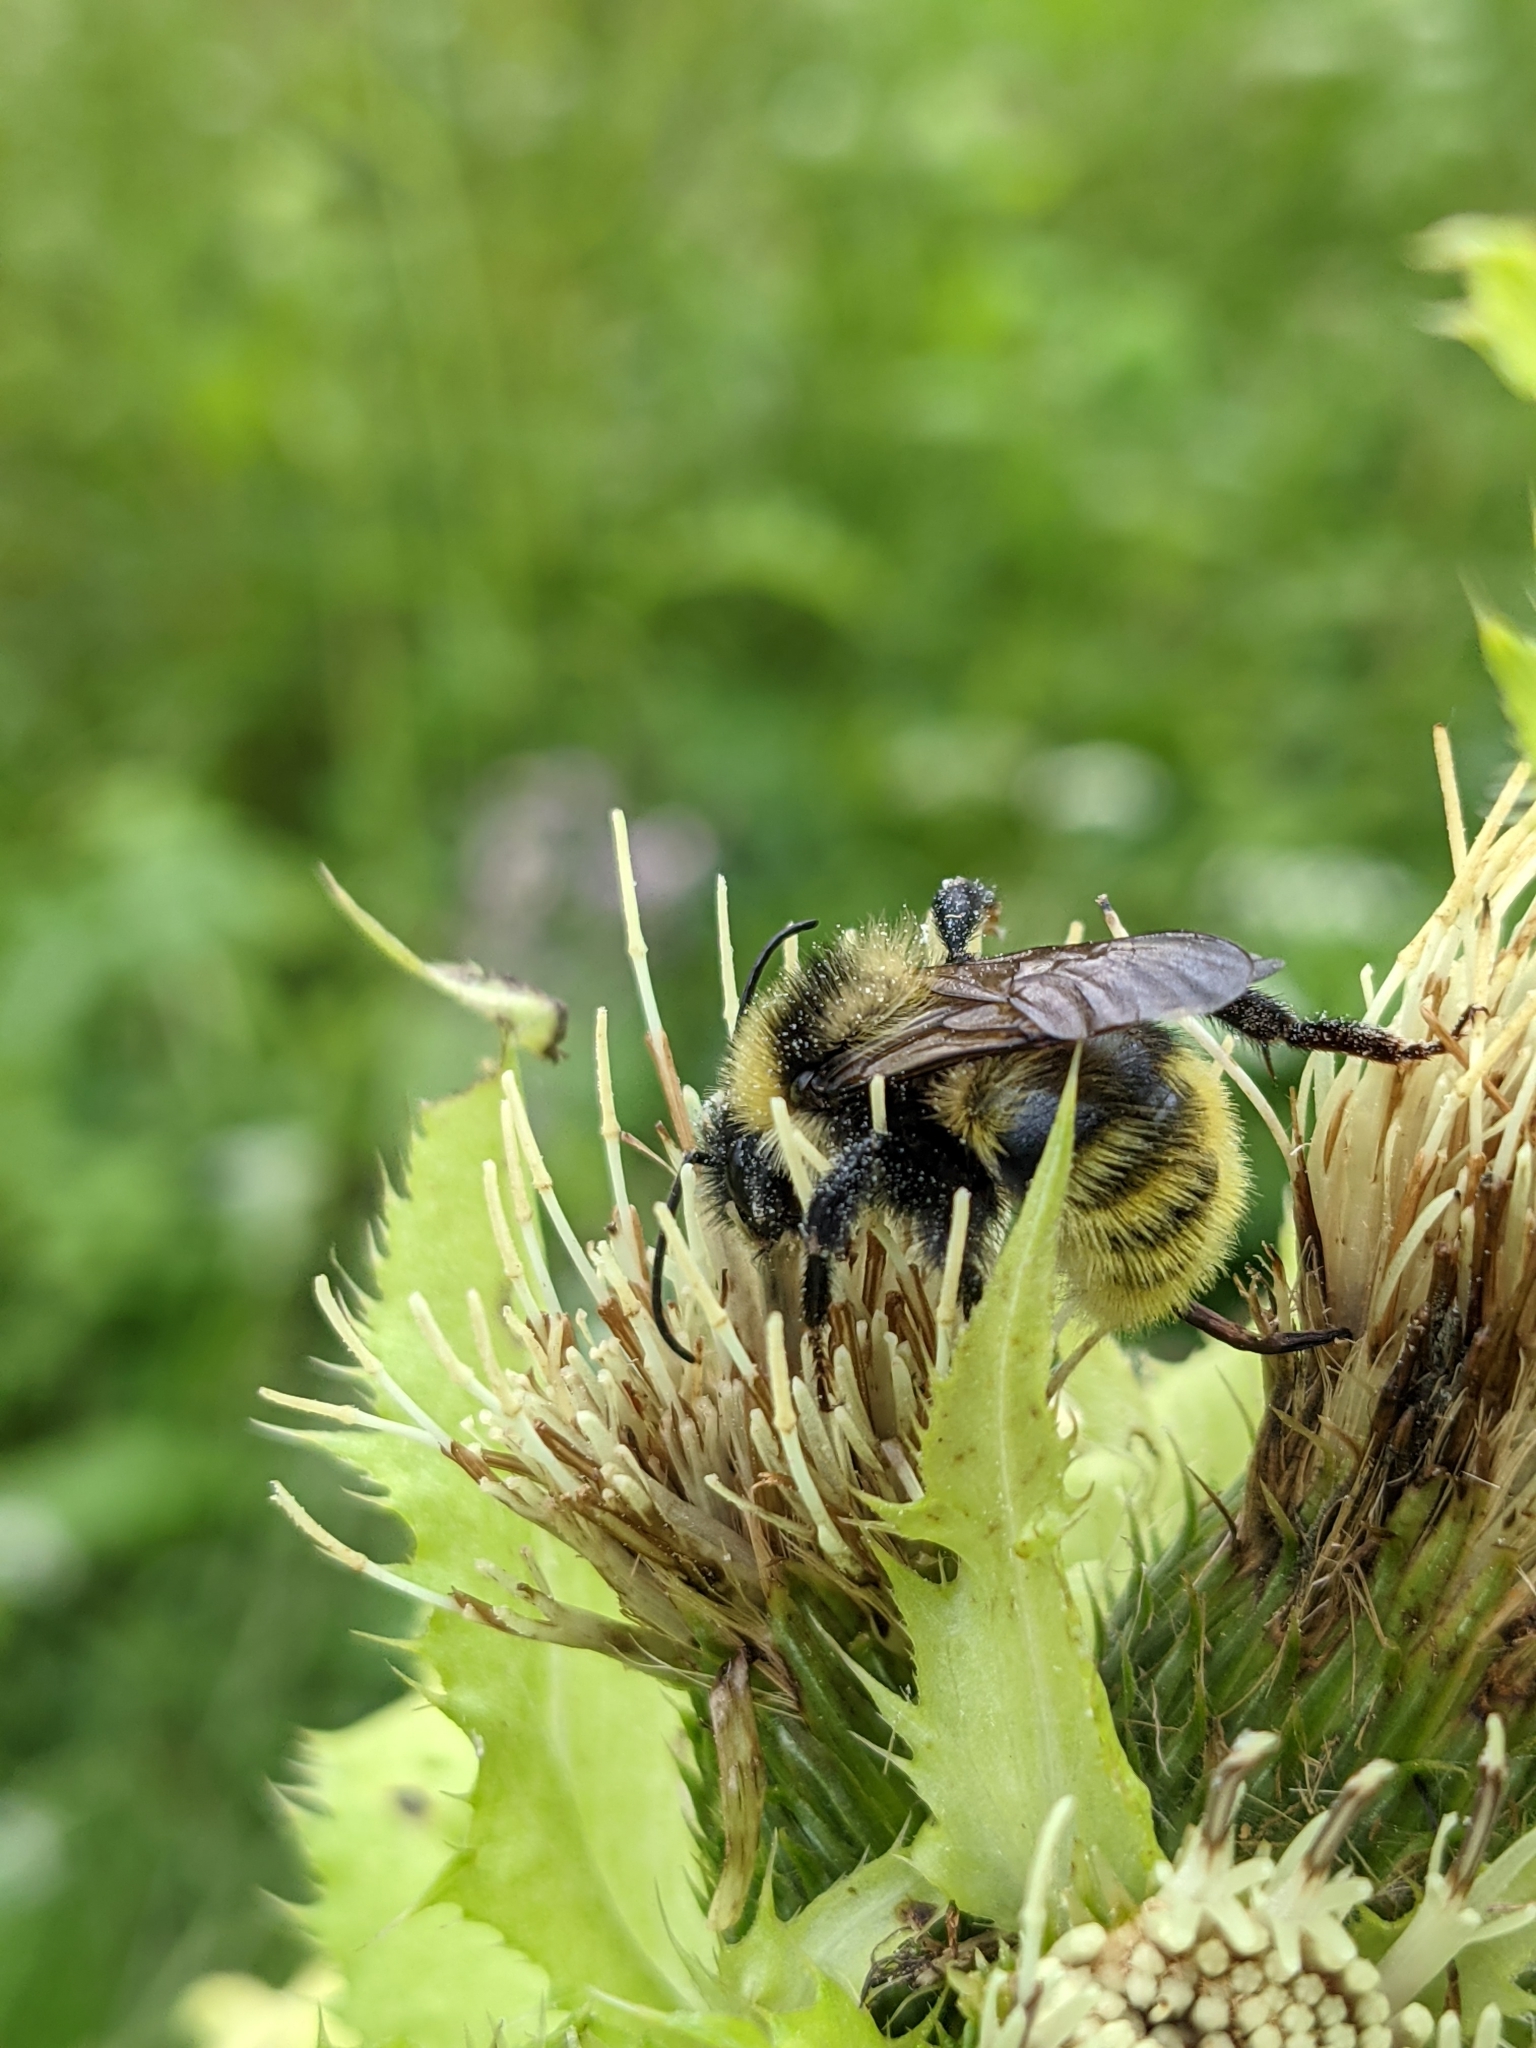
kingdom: Animalia
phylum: Arthropoda
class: Insecta
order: Hymenoptera
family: Apidae
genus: Bombus
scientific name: Bombus campestris
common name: Field cuckoo-bee
